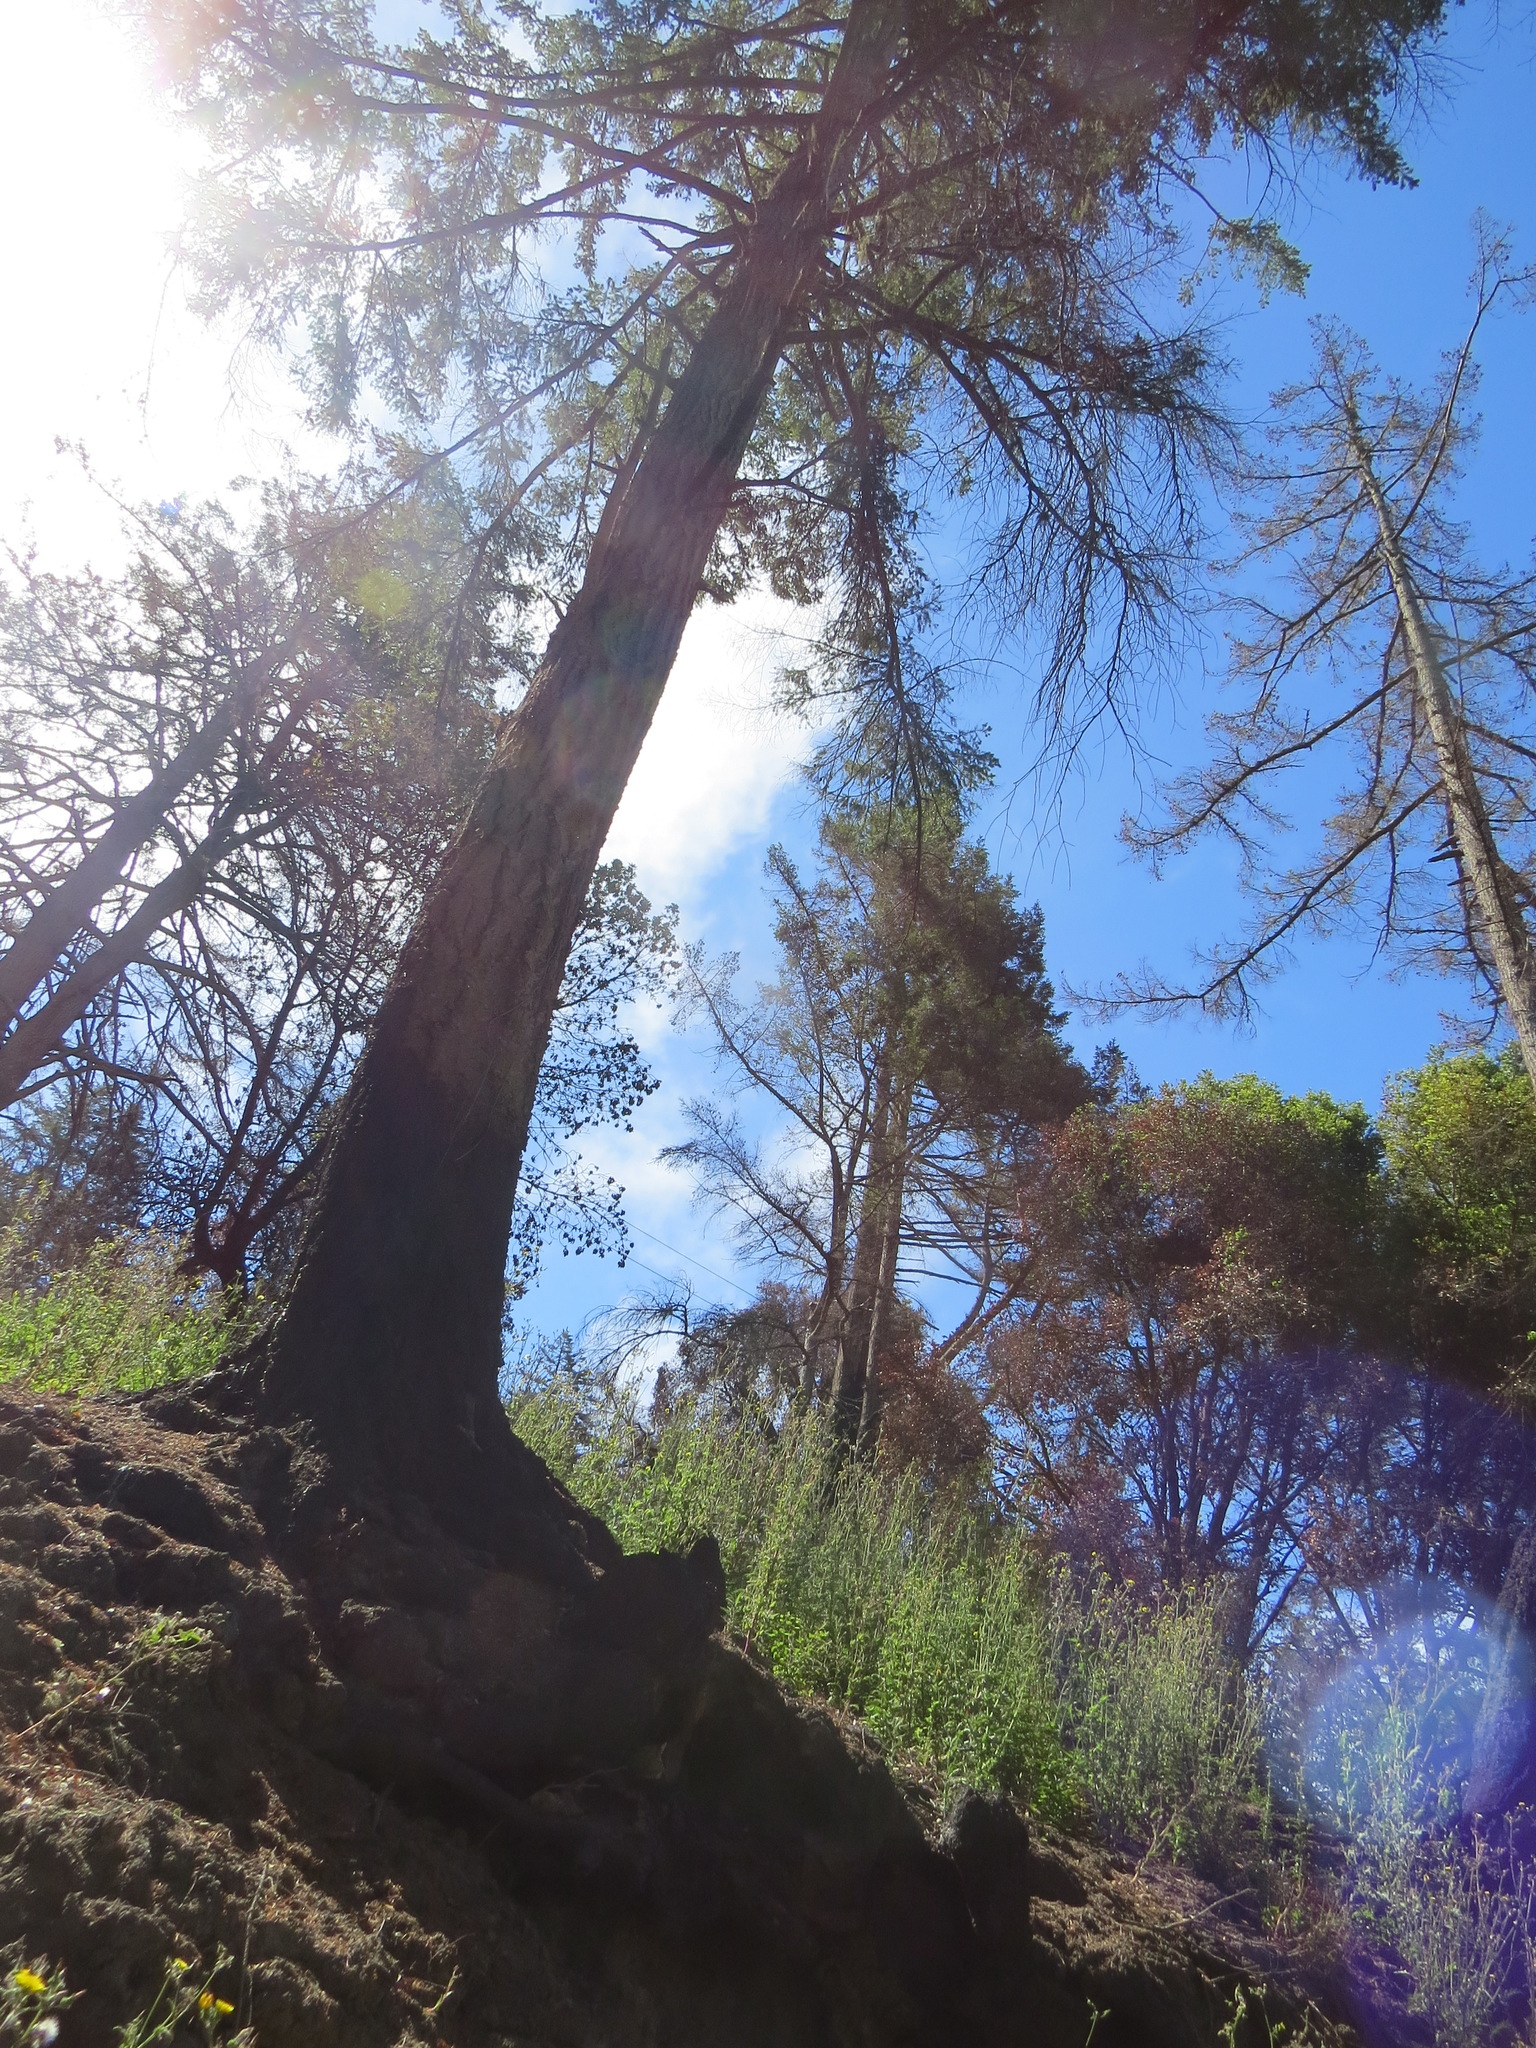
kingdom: Plantae
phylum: Tracheophyta
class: Pinopsida
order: Pinales
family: Pinaceae
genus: Pseudotsuga
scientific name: Pseudotsuga menziesii
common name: Douglas fir
